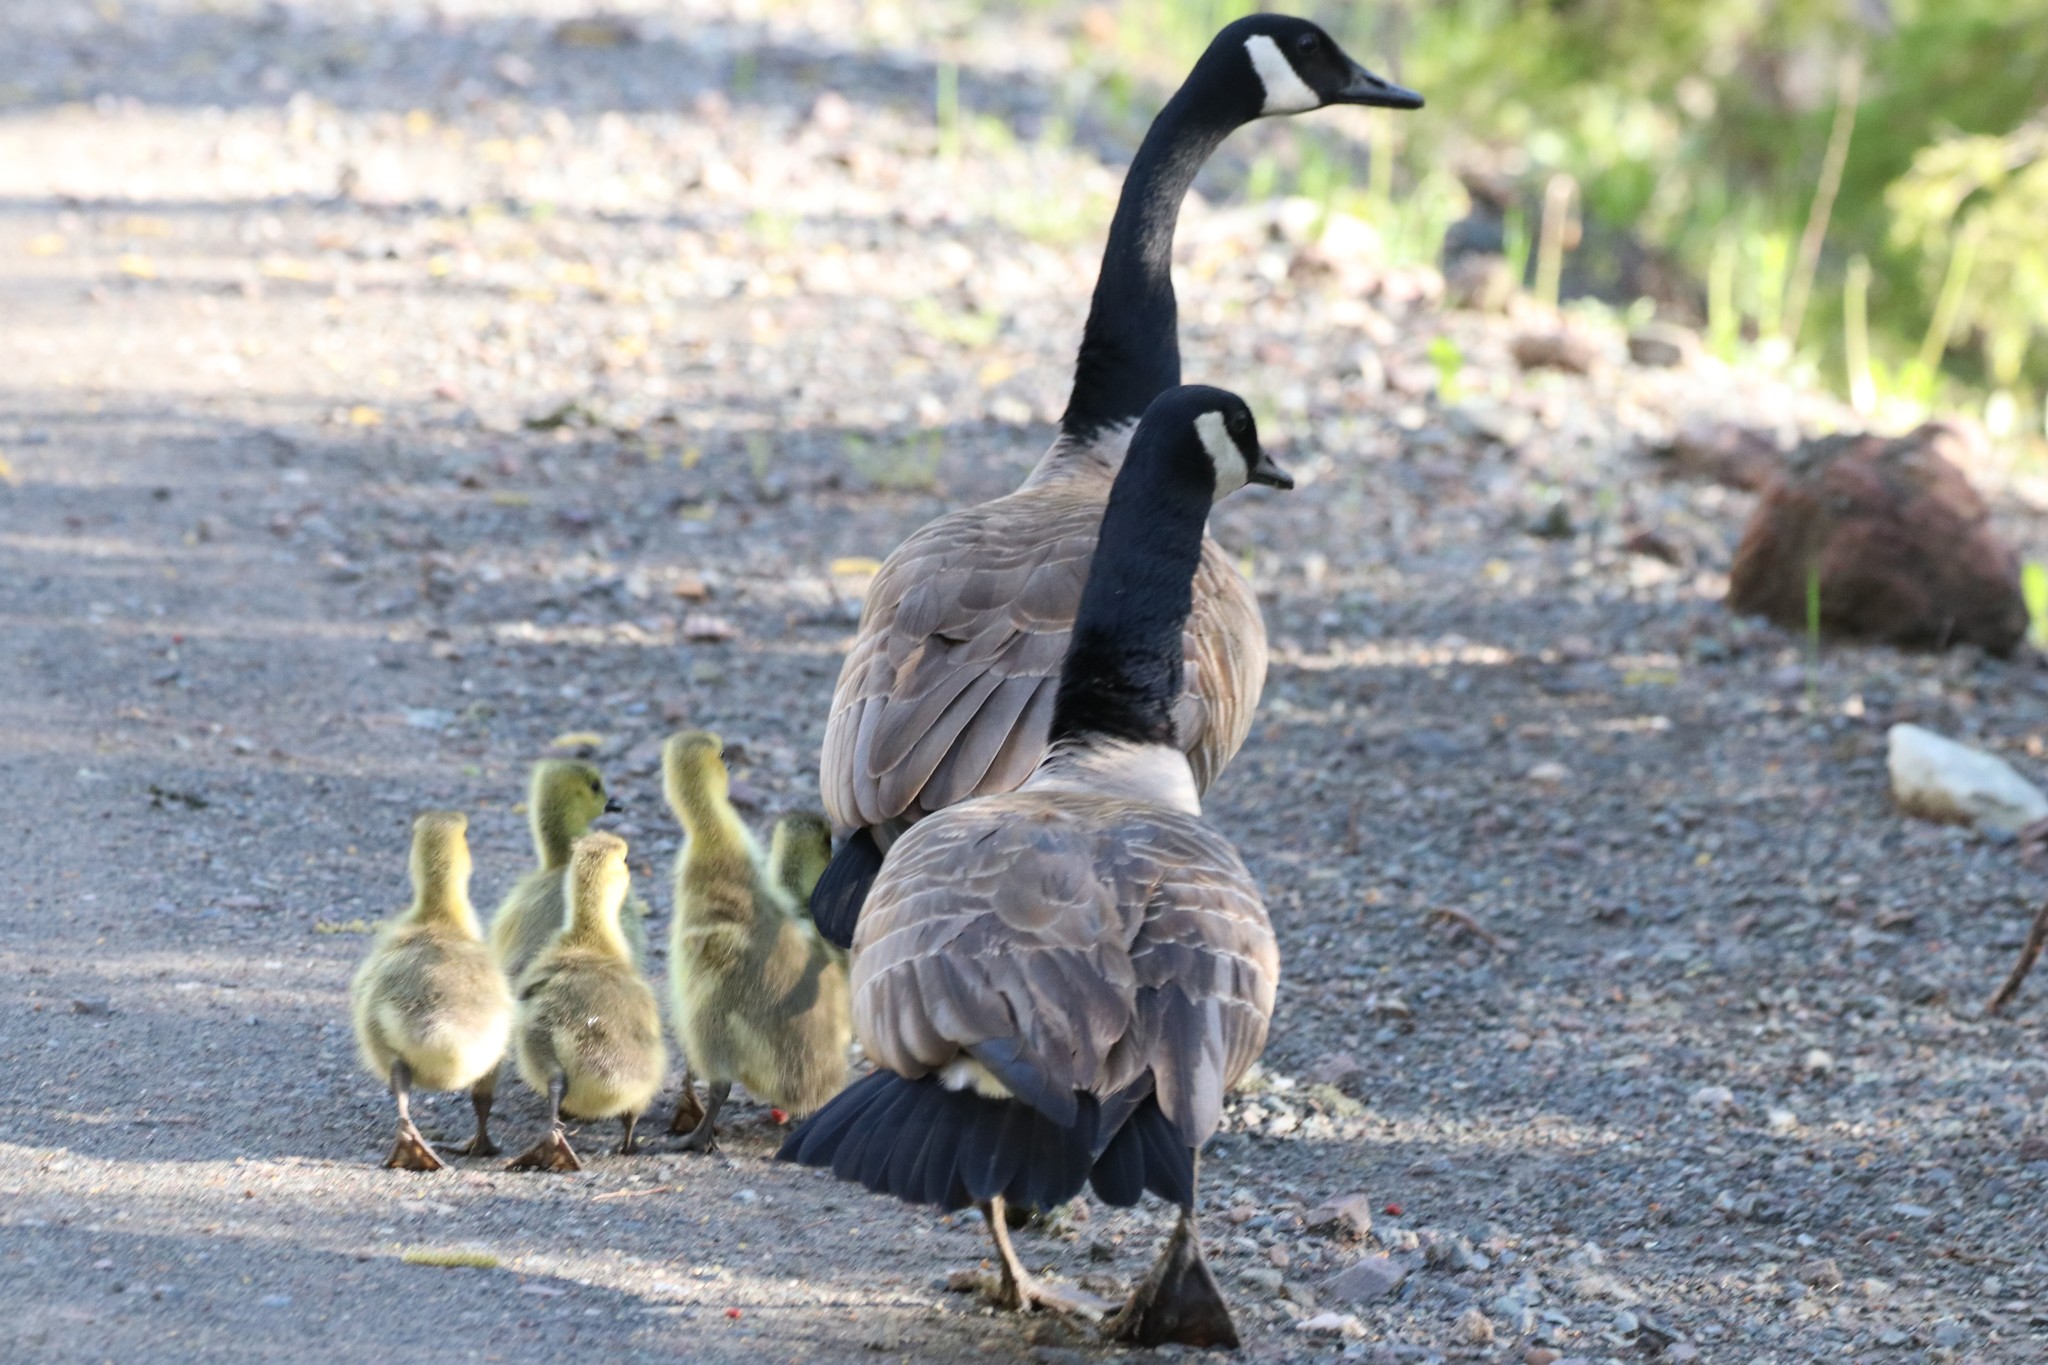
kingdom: Animalia
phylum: Chordata
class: Aves
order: Anseriformes
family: Anatidae
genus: Branta
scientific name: Branta canadensis
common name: Canada goose
